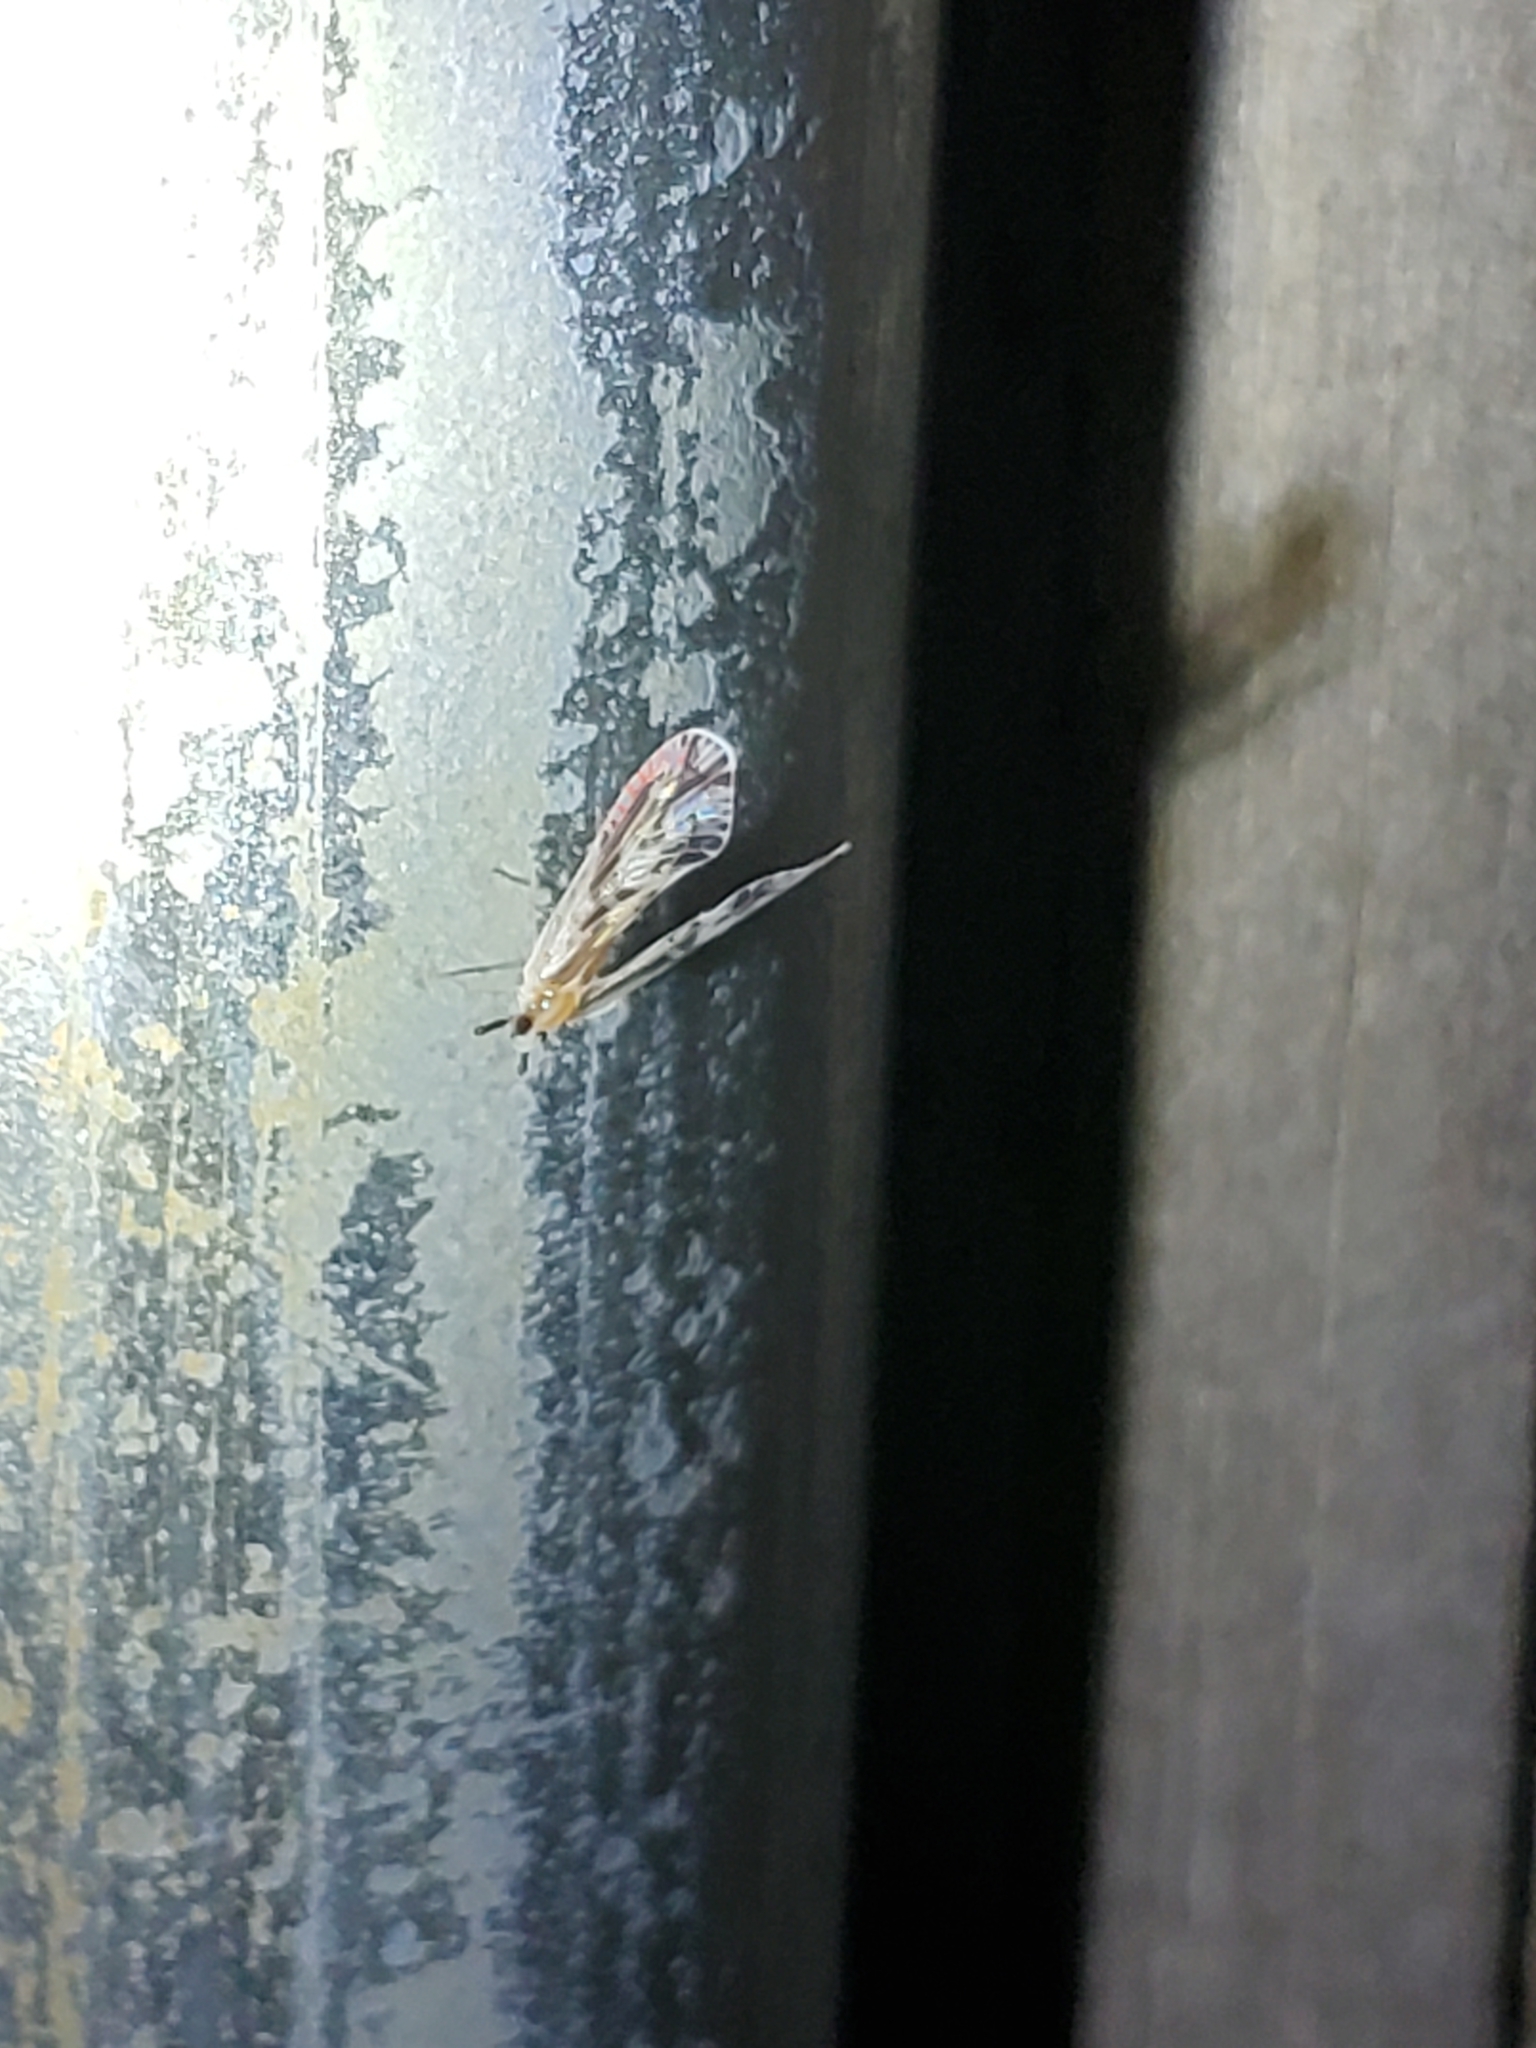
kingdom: Animalia
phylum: Arthropoda
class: Insecta
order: Hemiptera
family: Derbidae
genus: Anotia
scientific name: Anotia fitchi
